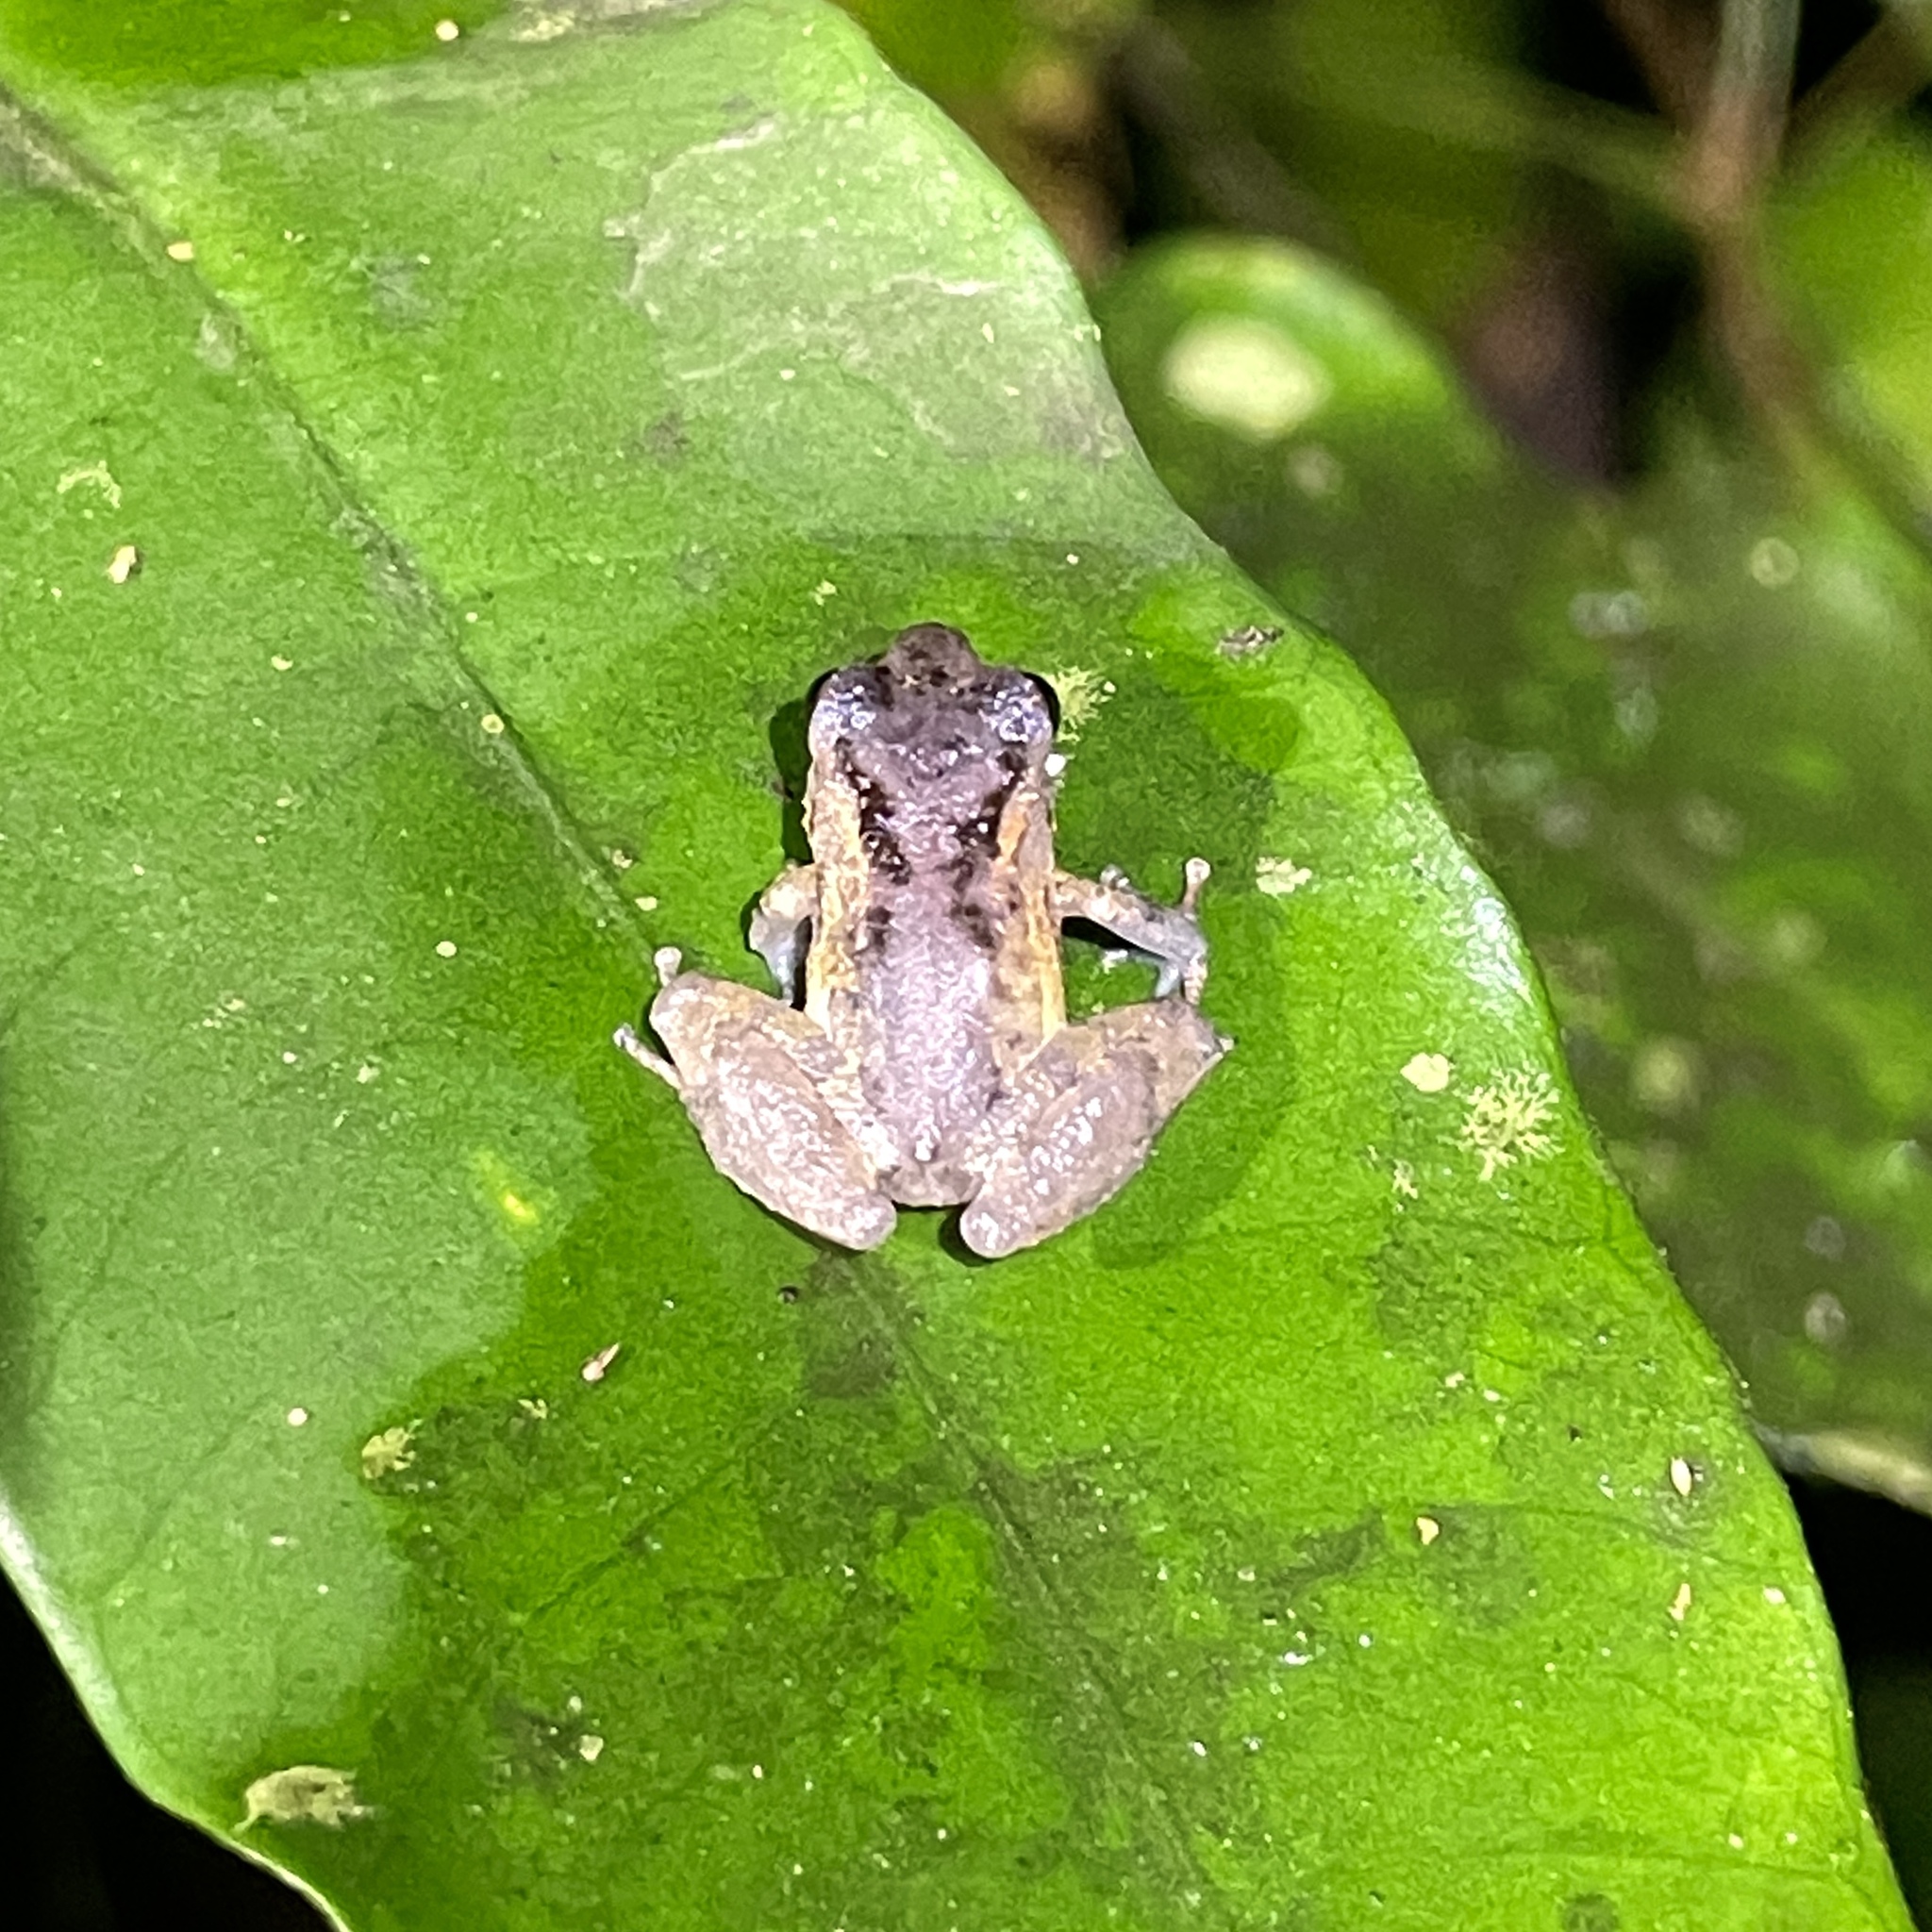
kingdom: Animalia
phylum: Chordata
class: Amphibia
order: Anura
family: Craugastoridae
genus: Pristimantis
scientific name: Pristimantis urichi
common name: Lesser antilles robber frog
